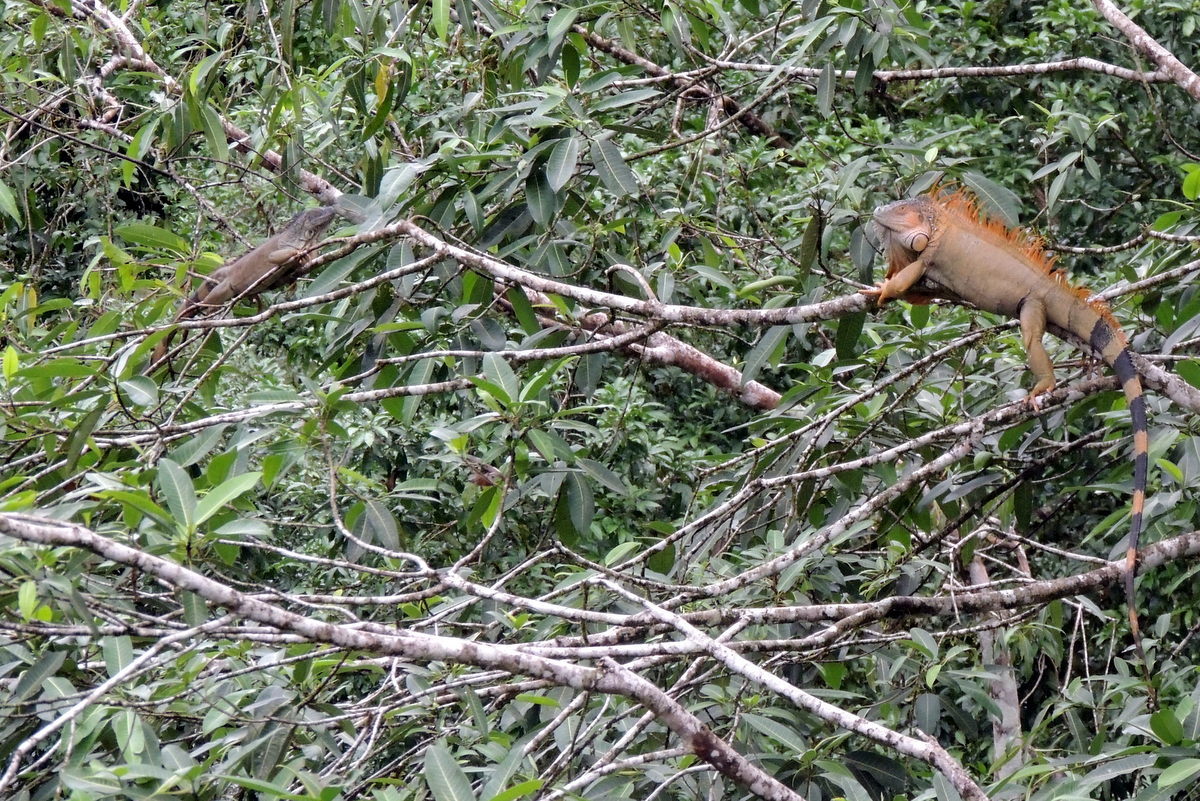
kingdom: Animalia
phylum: Chordata
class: Squamata
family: Iguanidae
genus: Iguana
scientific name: Iguana iguana
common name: Green iguana
